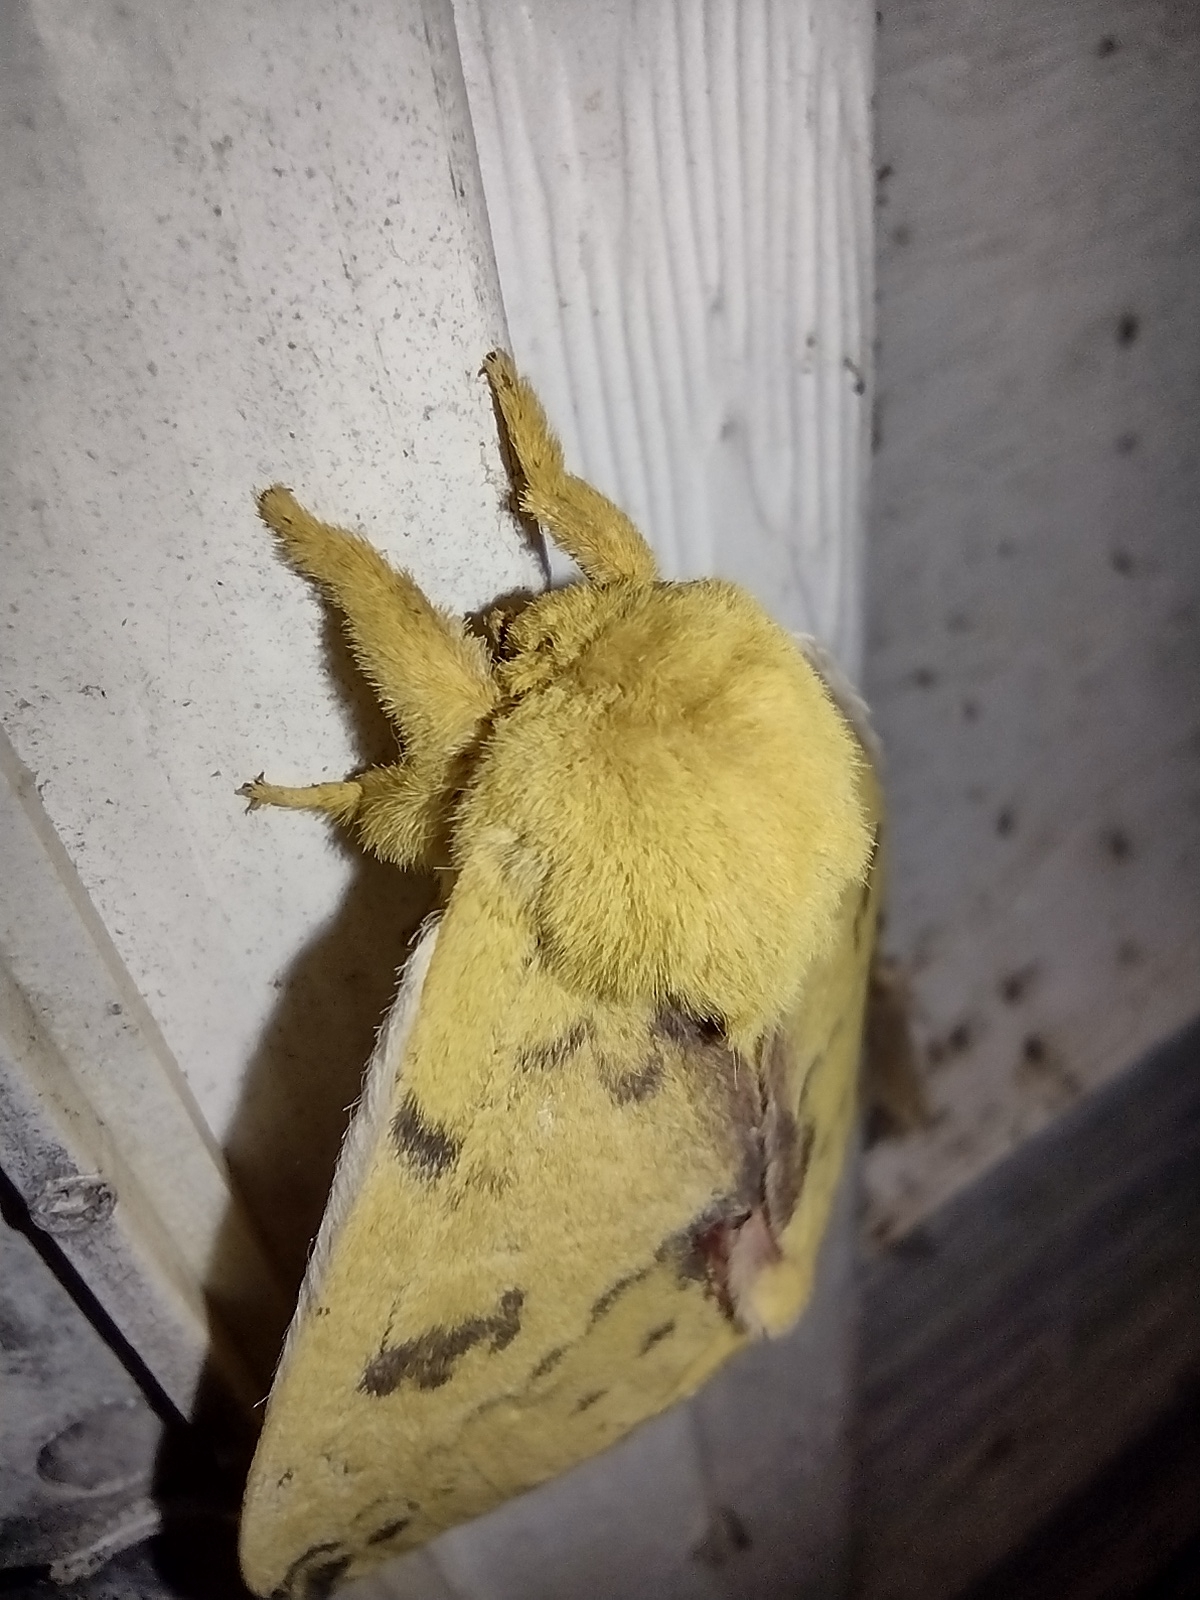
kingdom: Animalia
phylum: Arthropoda
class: Insecta
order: Lepidoptera
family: Saturniidae
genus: Automeris
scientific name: Automeris io
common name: Io moth
